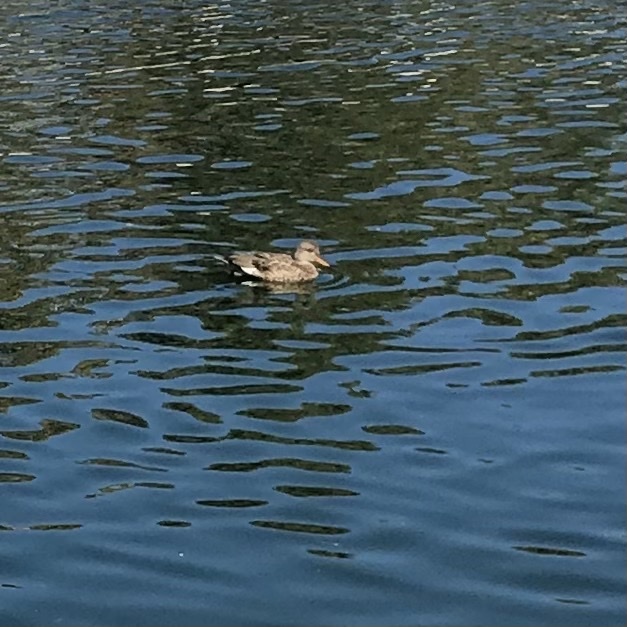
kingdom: Animalia
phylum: Chordata
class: Aves
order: Anseriformes
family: Anatidae
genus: Mareca
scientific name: Mareca strepera
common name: Gadwall
